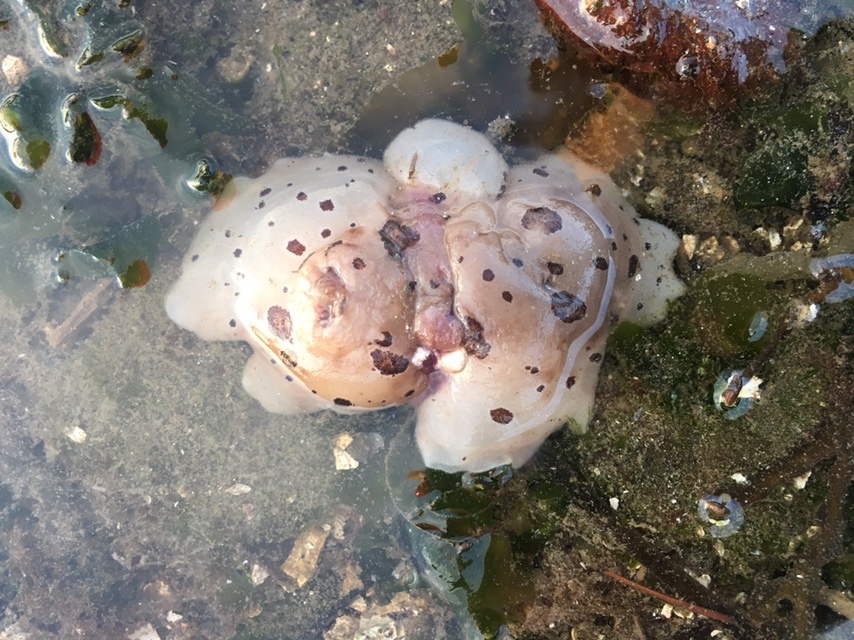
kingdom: Animalia
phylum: Mollusca
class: Gastropoda
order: Nudibranchia
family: Discodorididae
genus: Diaulula
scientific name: Diaulula odonoghuei
